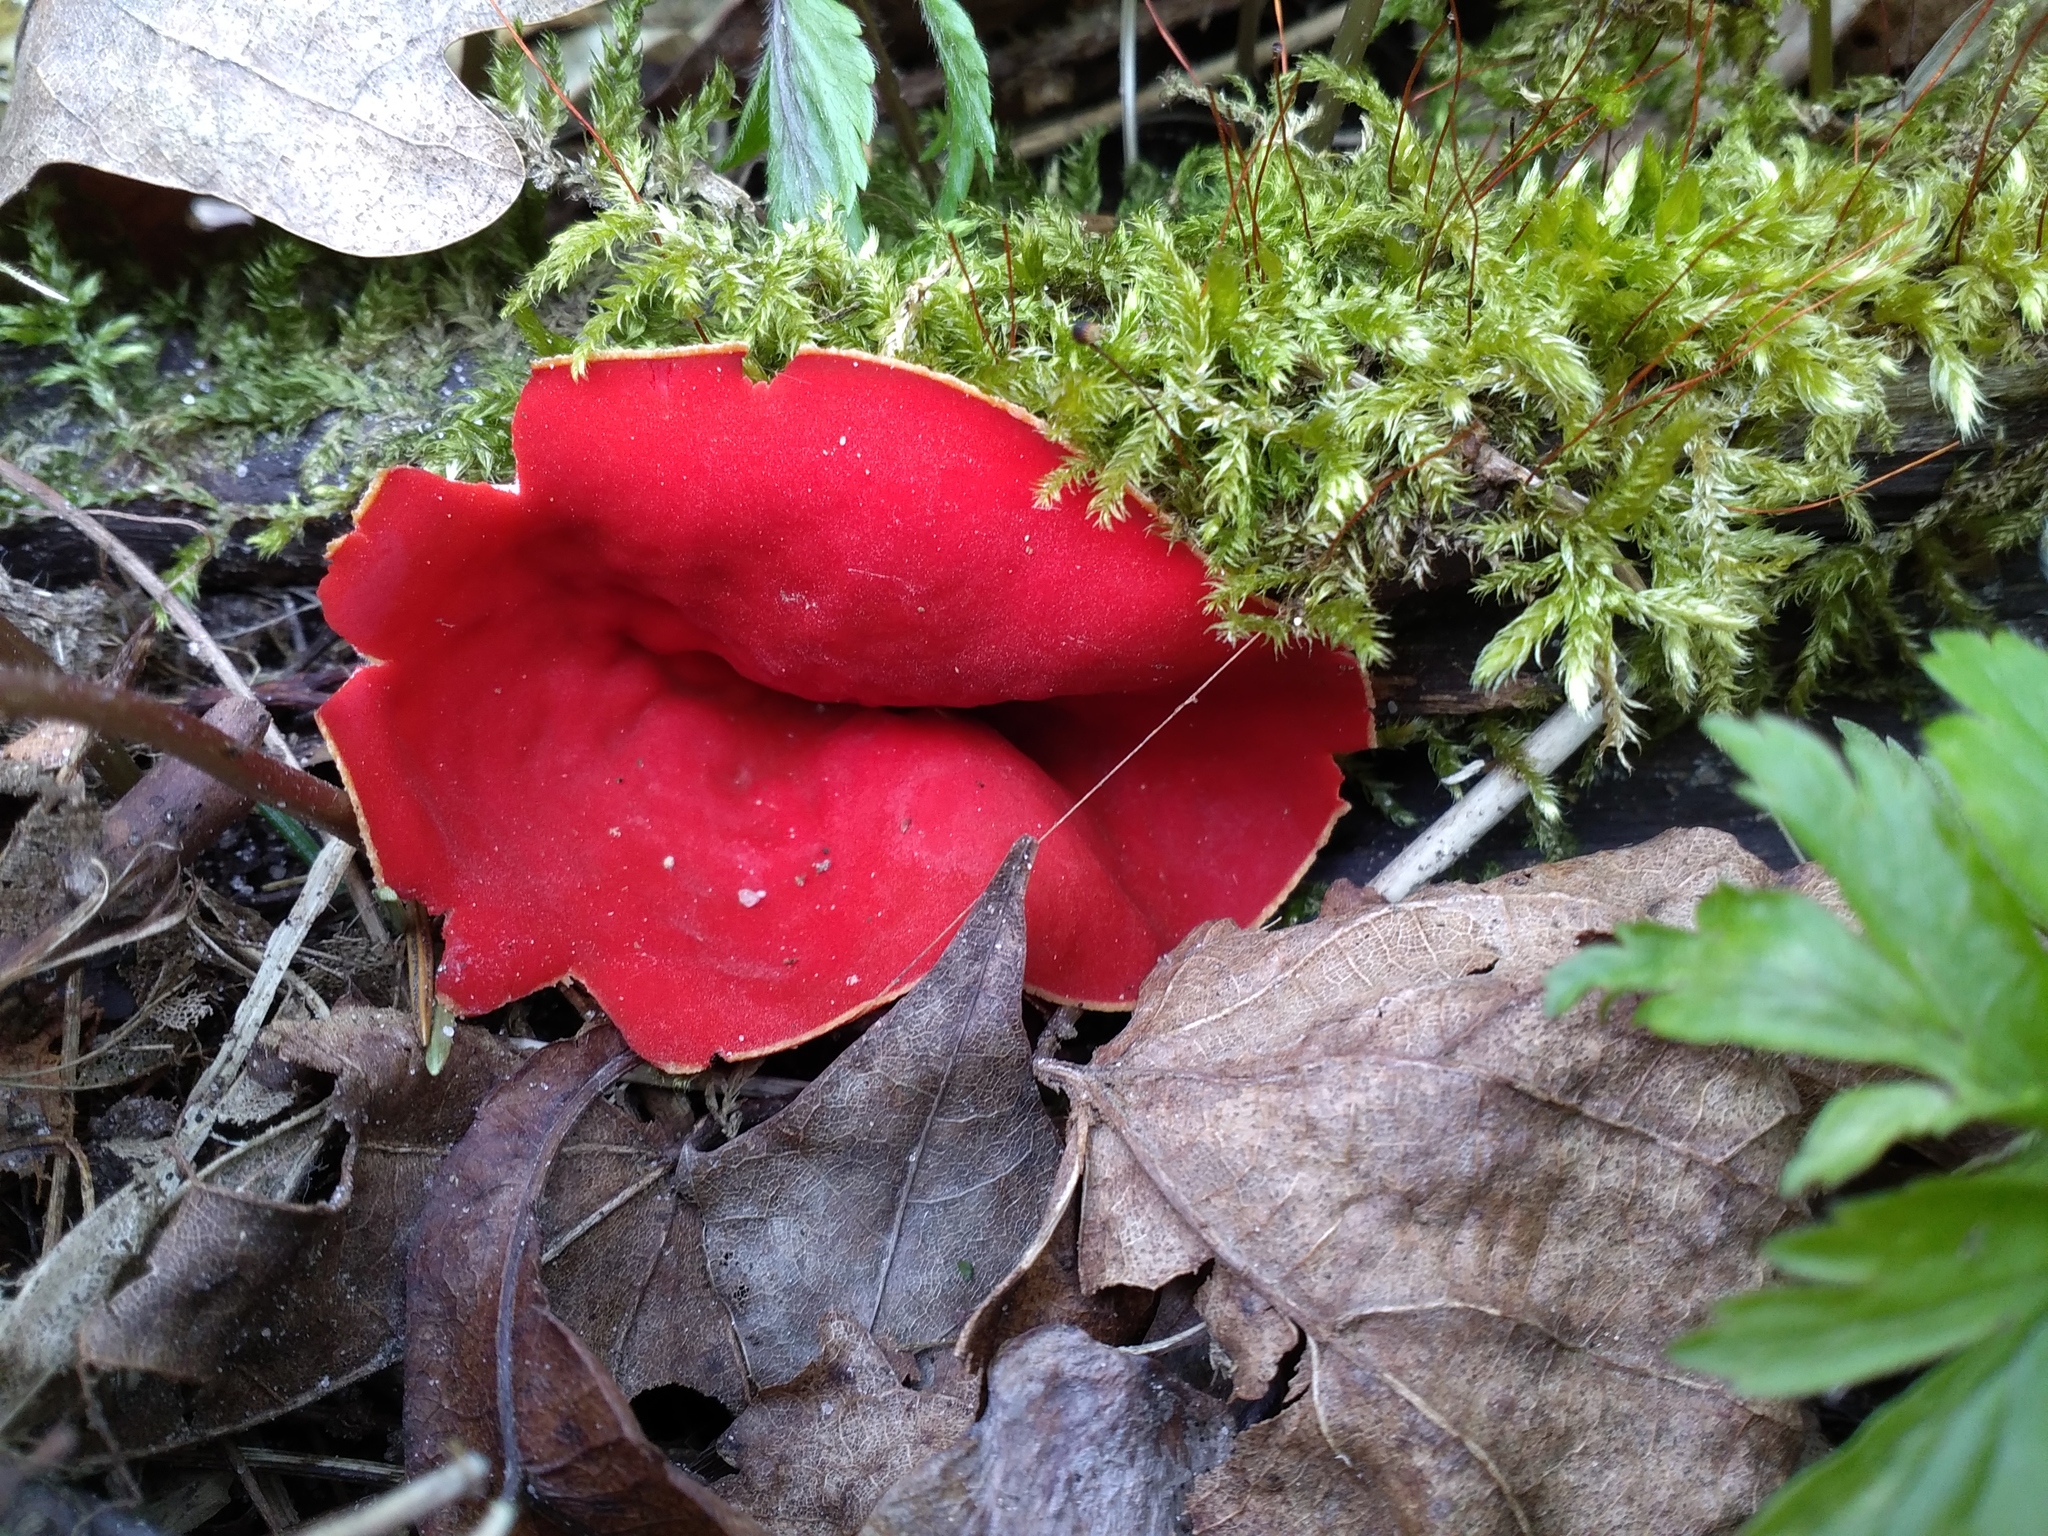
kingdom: Fungi
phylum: Ascomycota
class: Pezizomycetes
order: Pezizales
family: Sarcoscyphaceae
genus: Sarcoscypha
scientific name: Sarcoscypha
